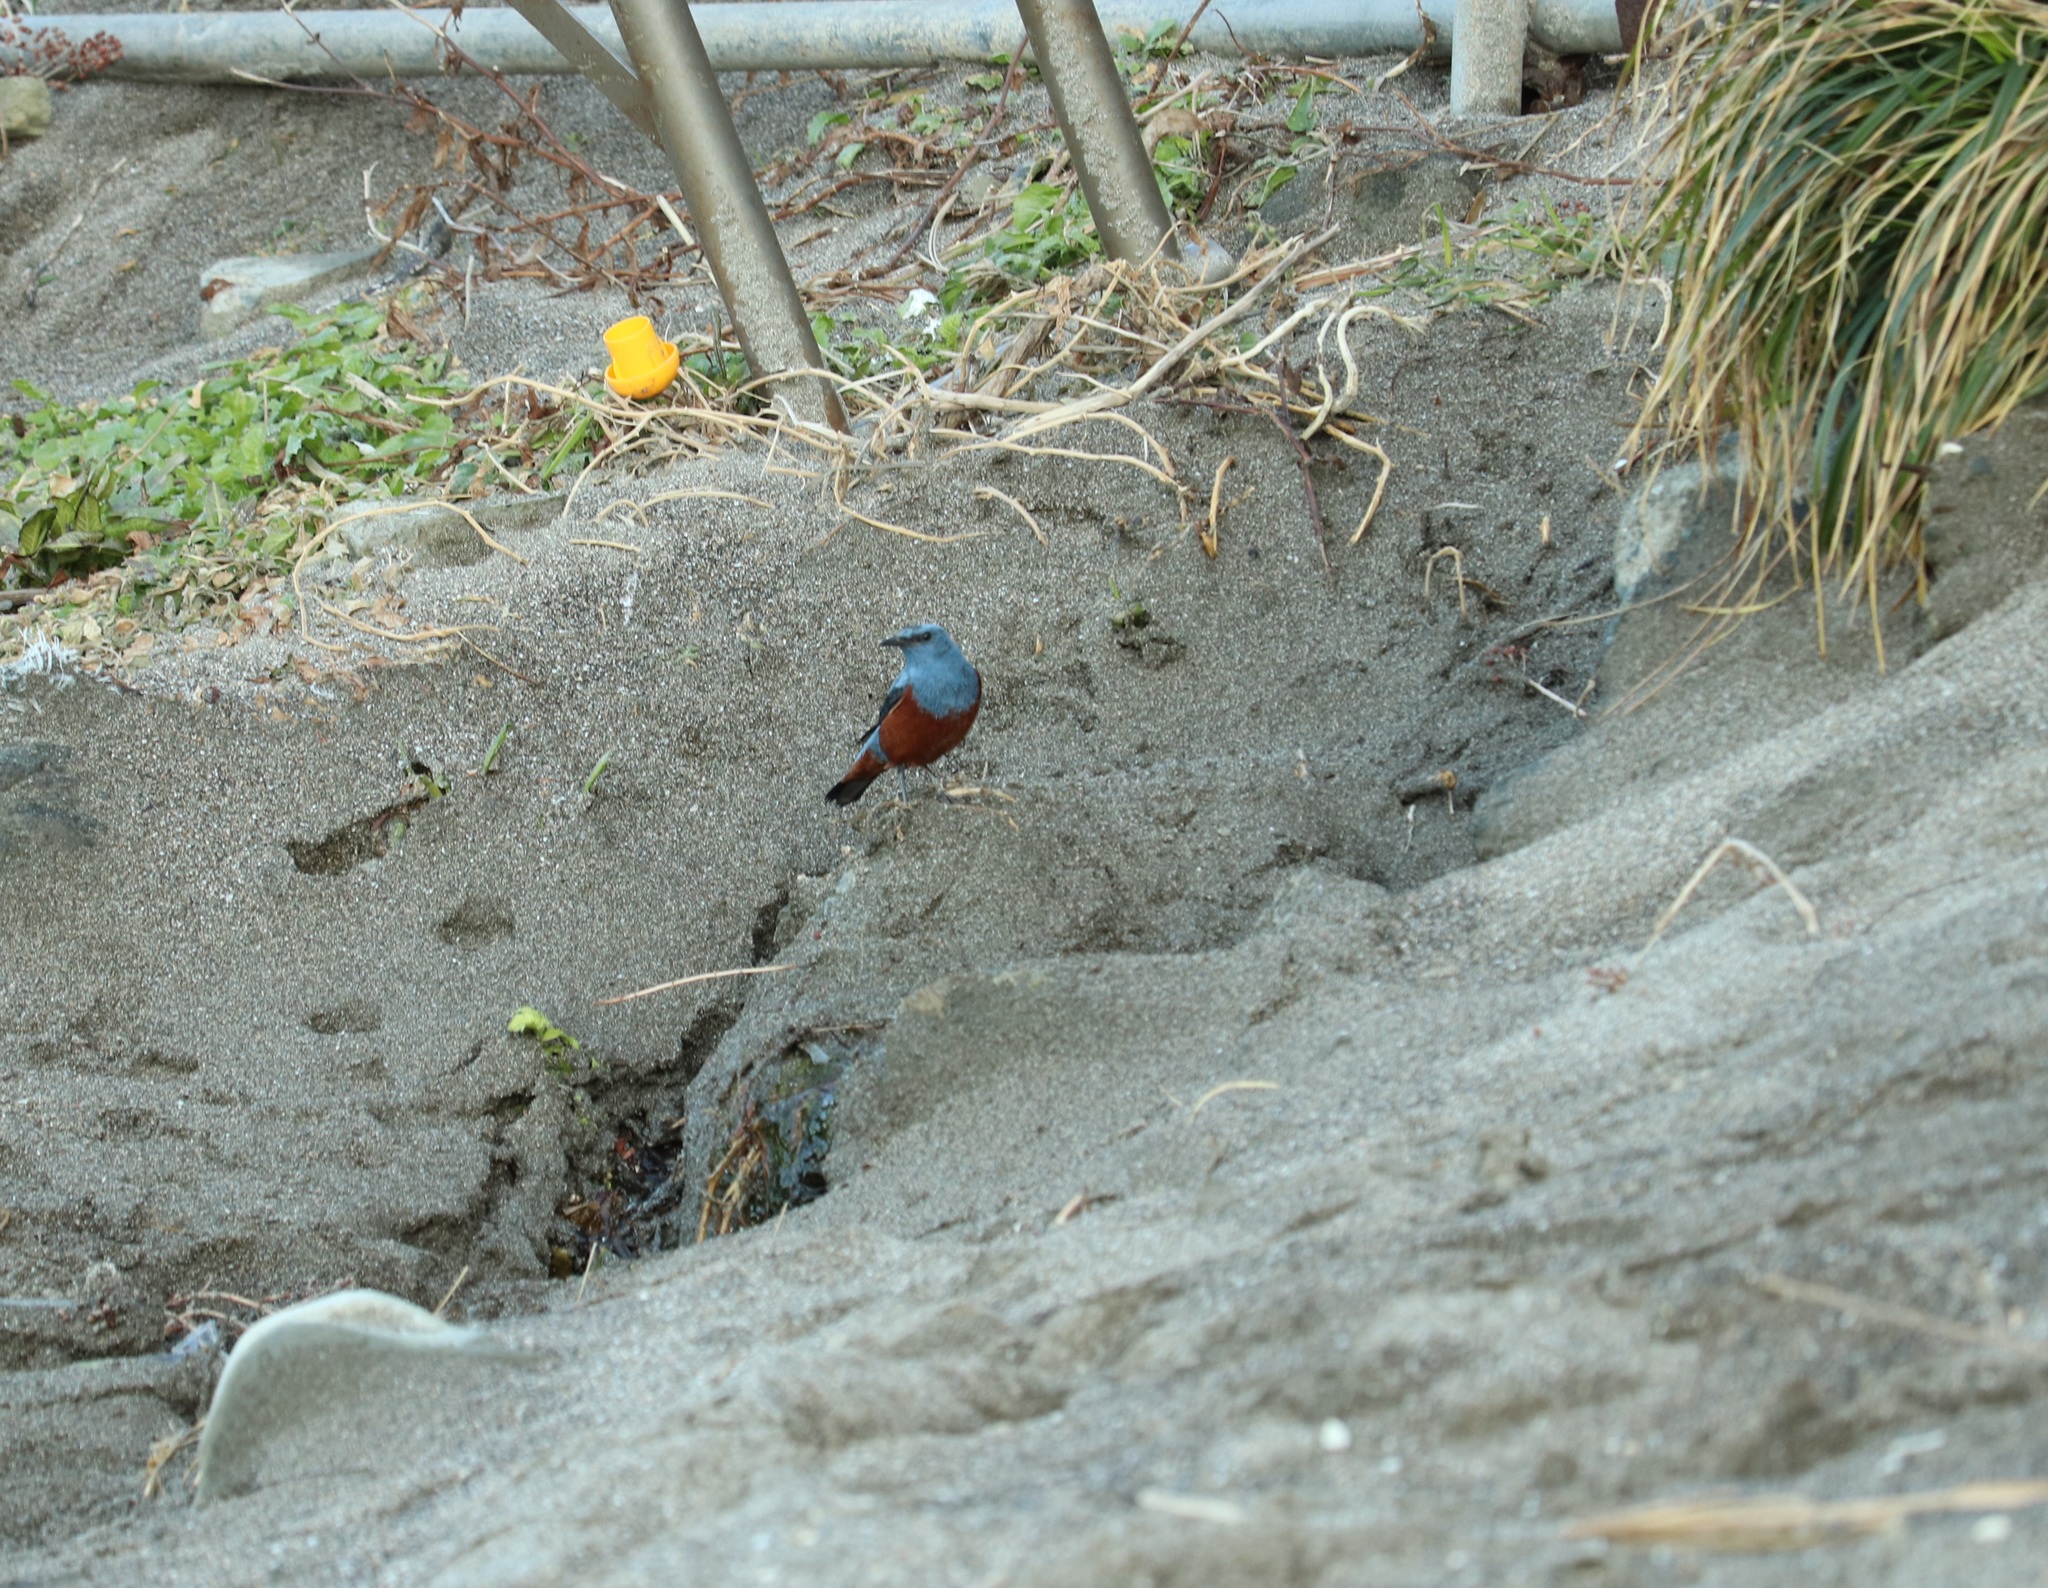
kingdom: Animalia
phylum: Chordata
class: Aves
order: Passeriformes
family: Muscicapidae
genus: Monticola
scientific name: Monticola solitarius
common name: Blue rock thrush
